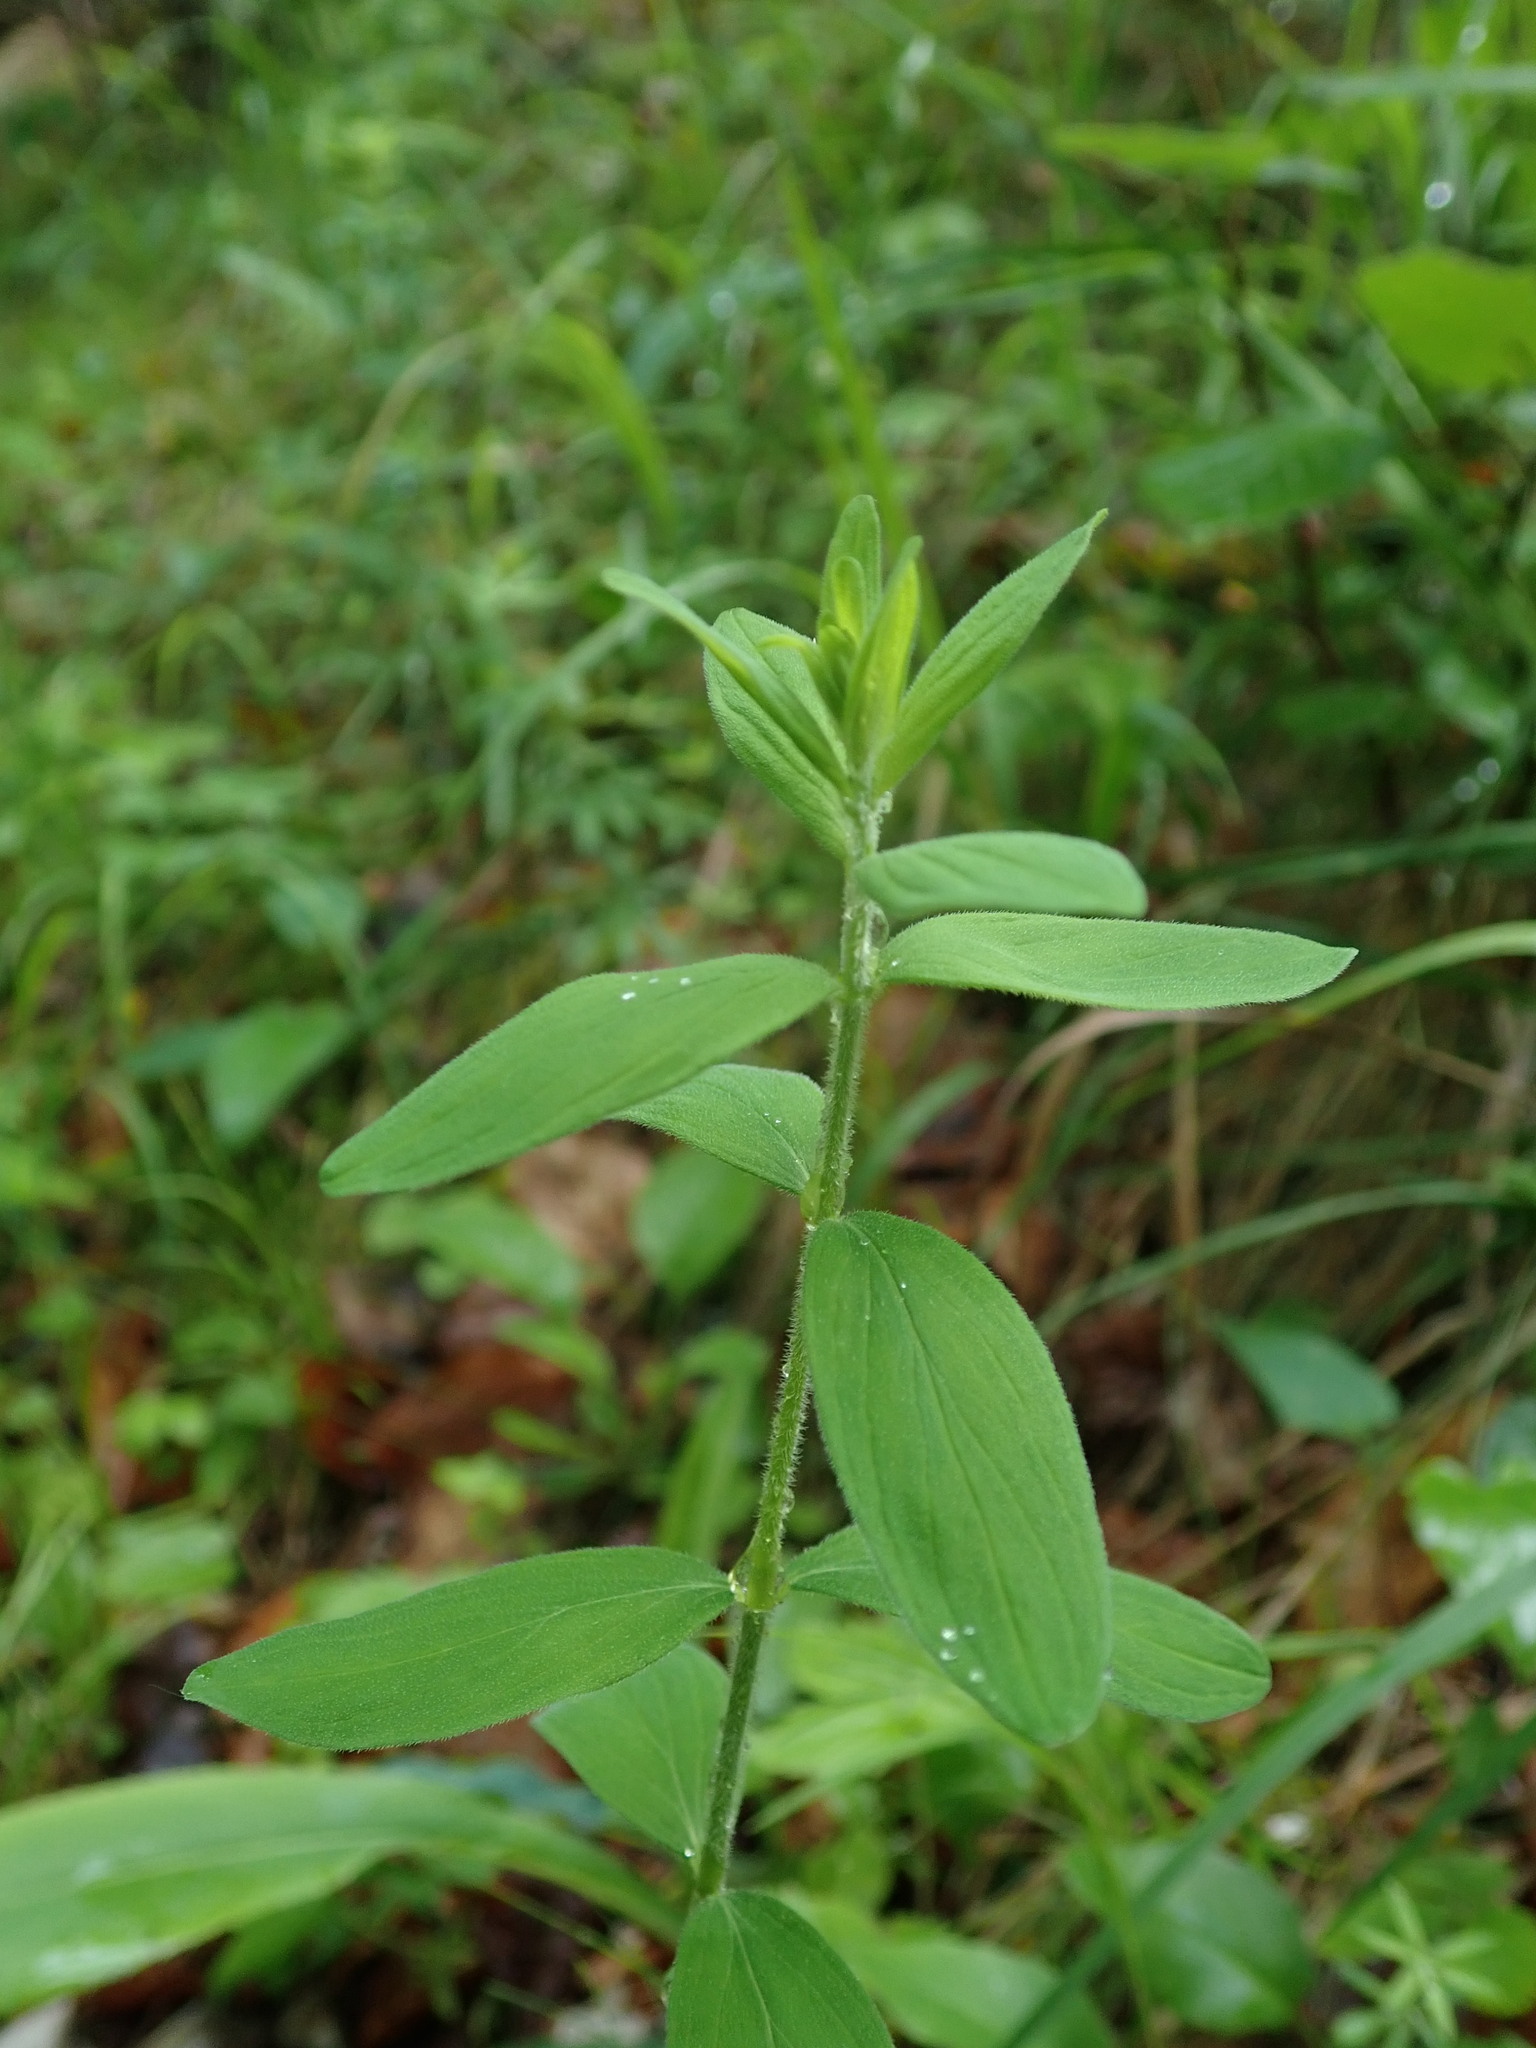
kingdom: Plantae
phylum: Tracheophyta
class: Magnoliopsida
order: Malpighiales
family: Hypericaceae
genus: Hypericum
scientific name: Hypericum hirsutum
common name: Hairy st. john's-wort
